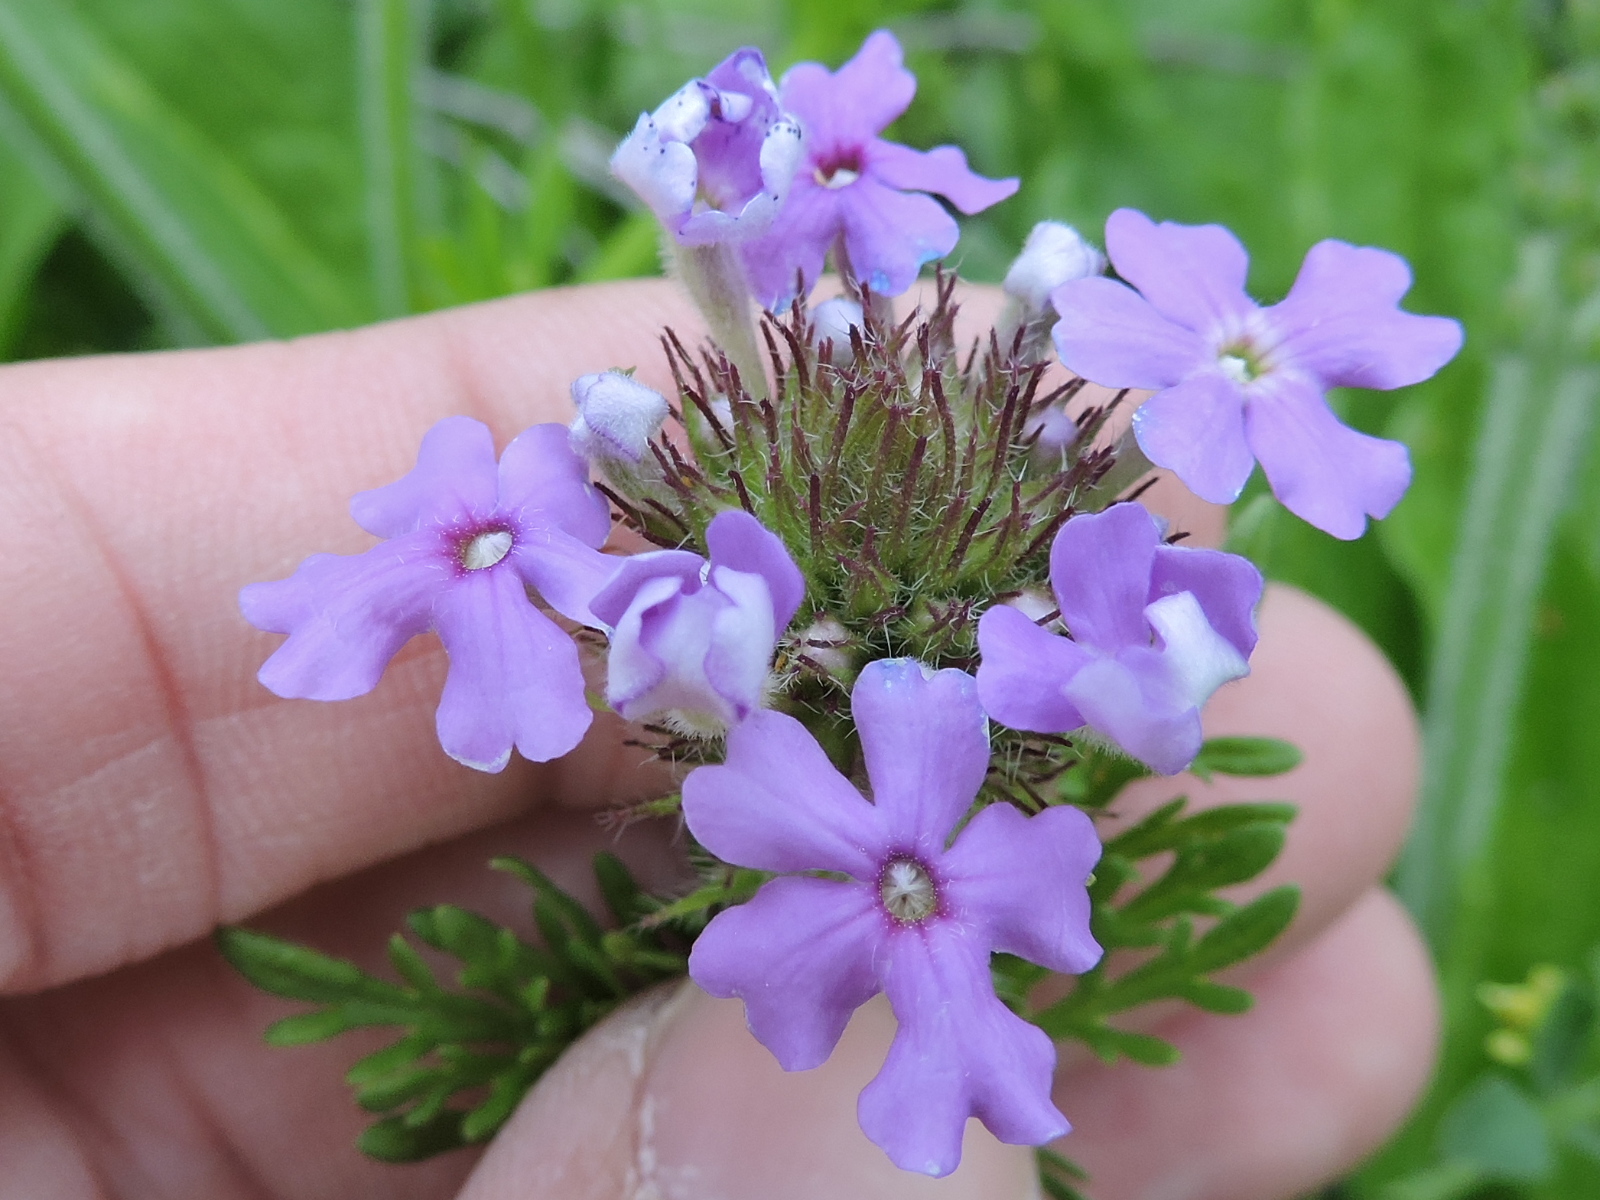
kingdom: Plantae
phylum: Tracheophyta
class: Magnoliopsida
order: Lamiales
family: Verbenaceae
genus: Verbena
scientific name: Verbena bipinnatifida
